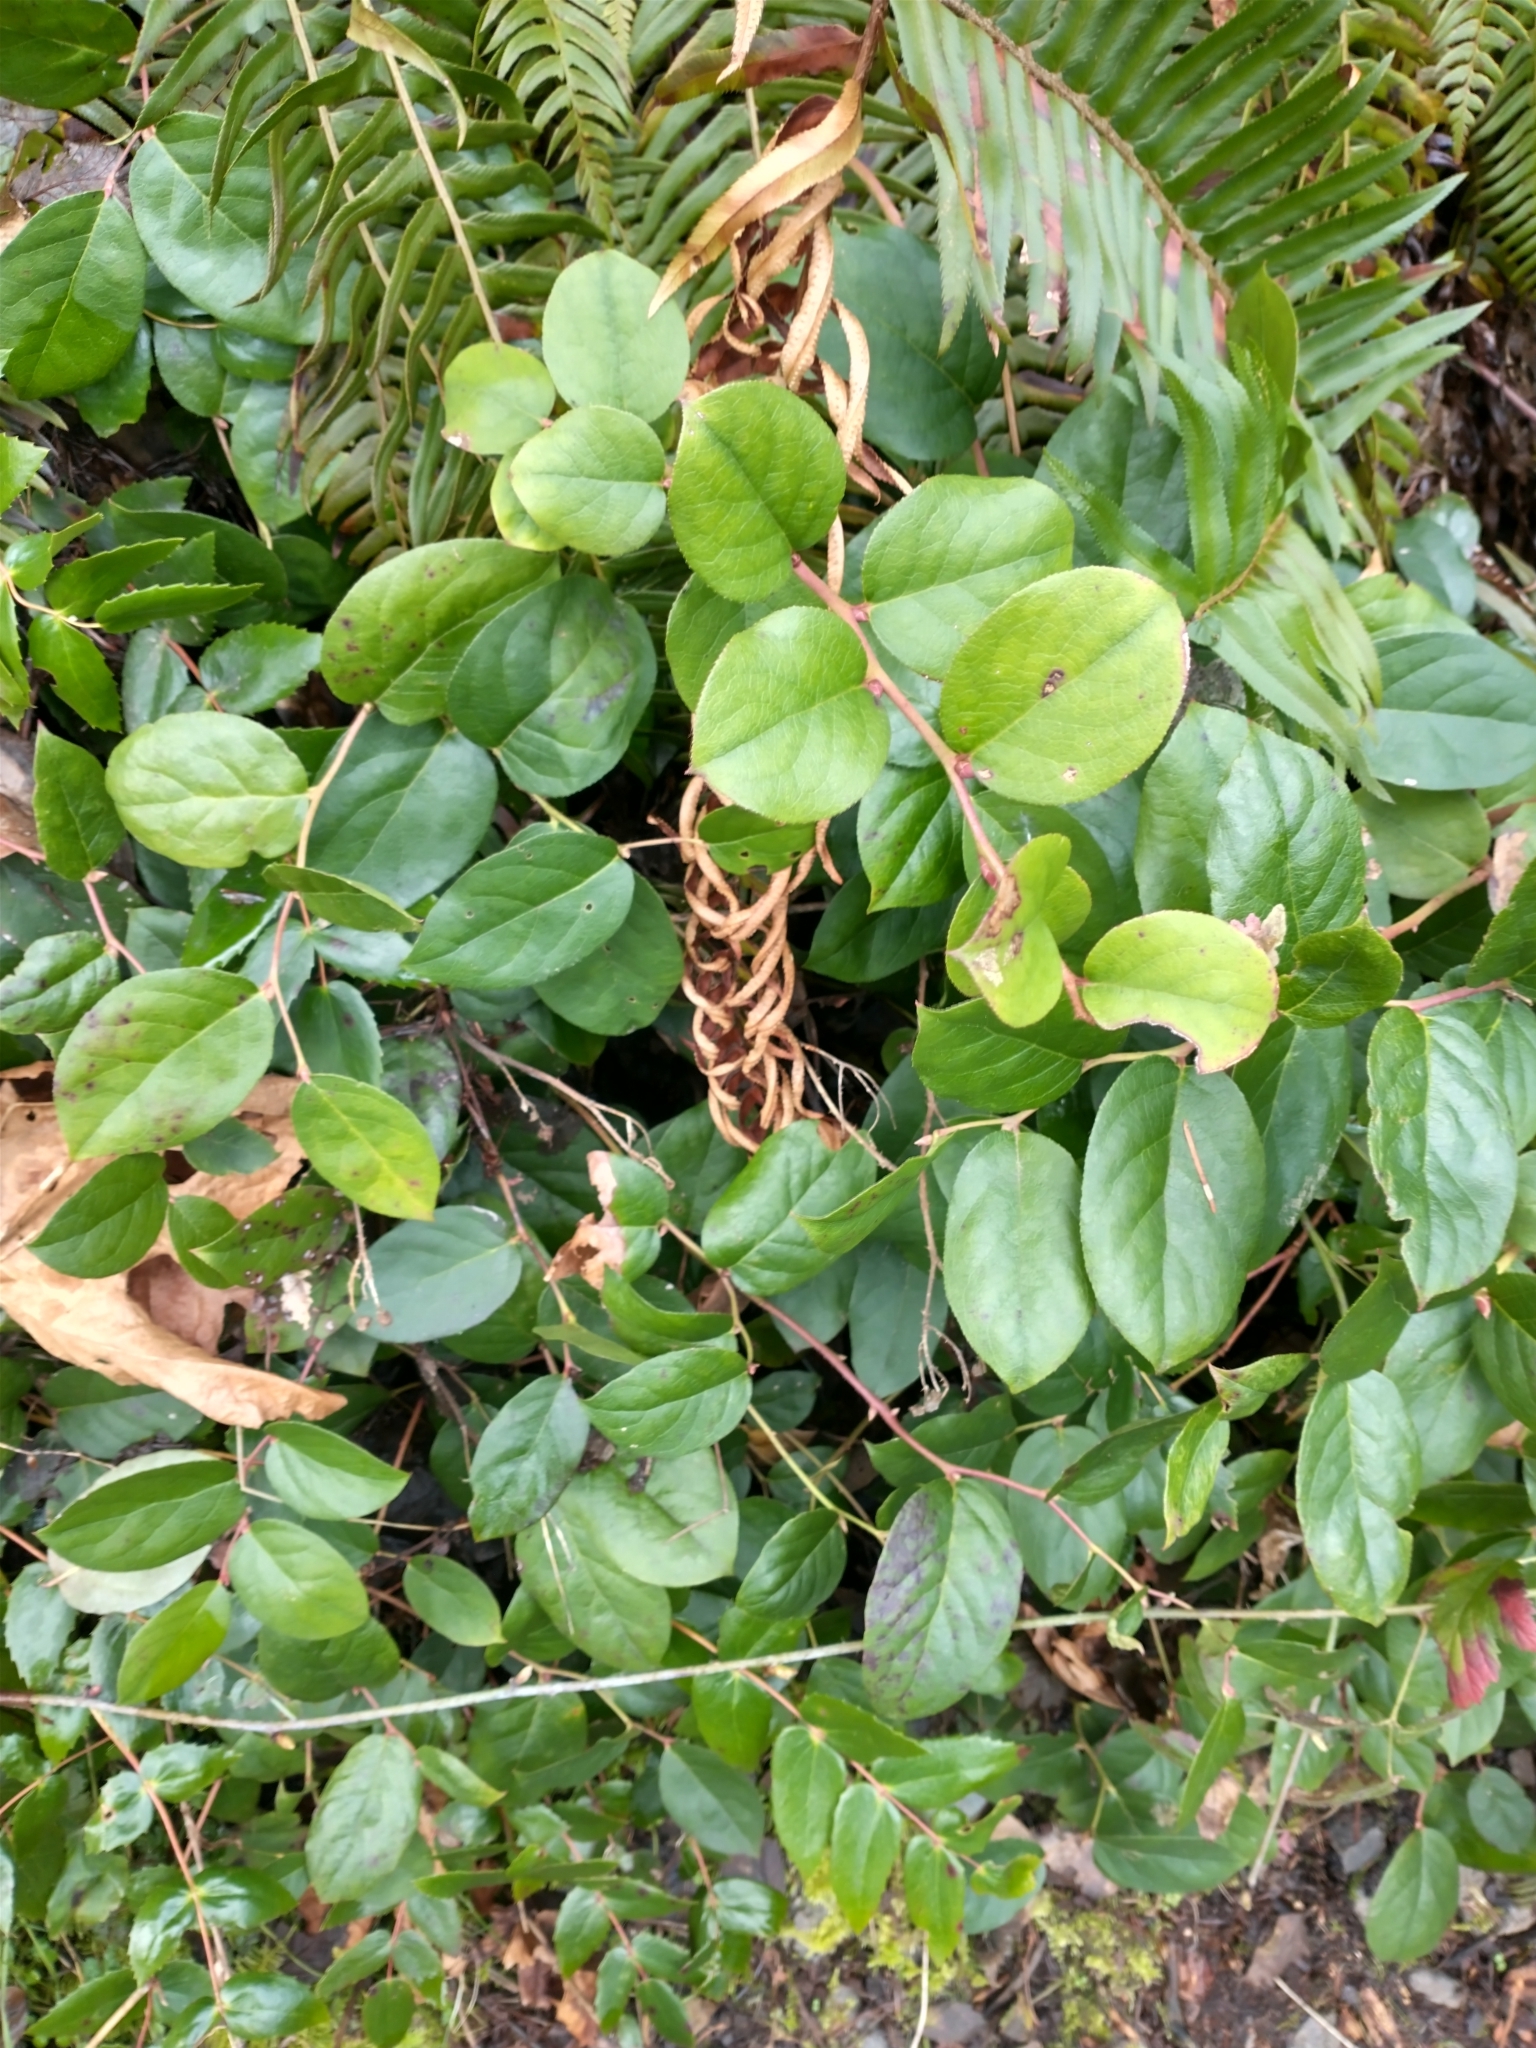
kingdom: Plantae
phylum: Tracheophyta
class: Magnoliopsida
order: Ericales
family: Ericaceae
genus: Gaultheria
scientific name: Gaultheria shallon
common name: Shallon
